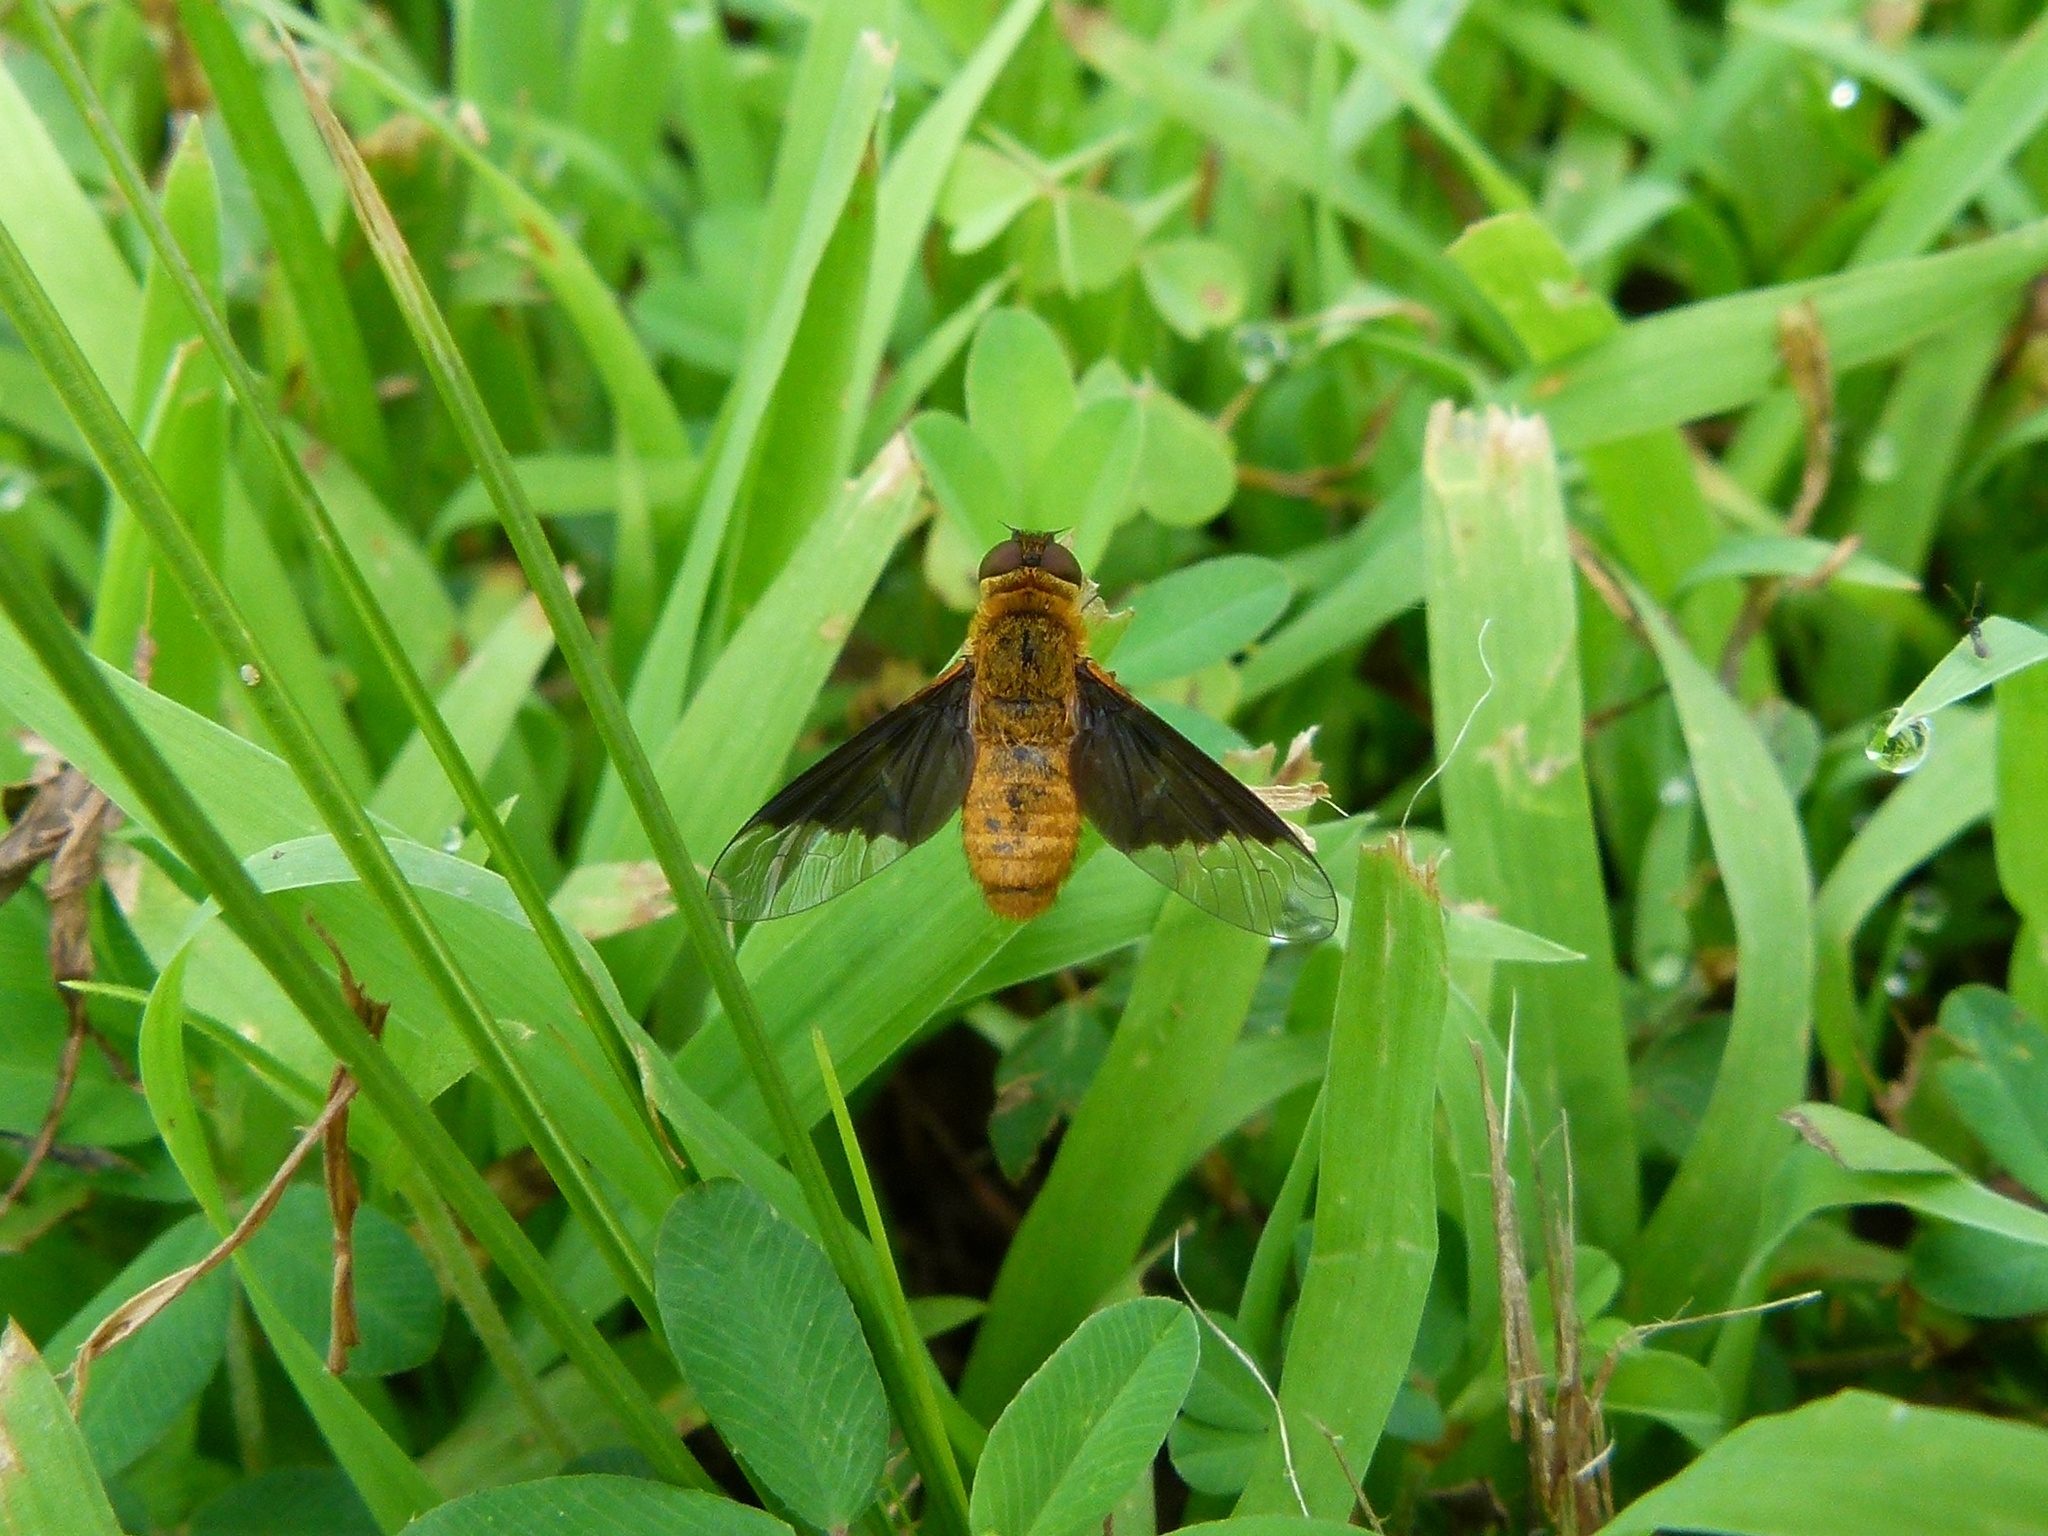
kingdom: Animalia
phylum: Arthropoda
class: Insecta
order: Diptera
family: Bombyliidae
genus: Chrysanthrax
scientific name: Chrysanthrax cypris
